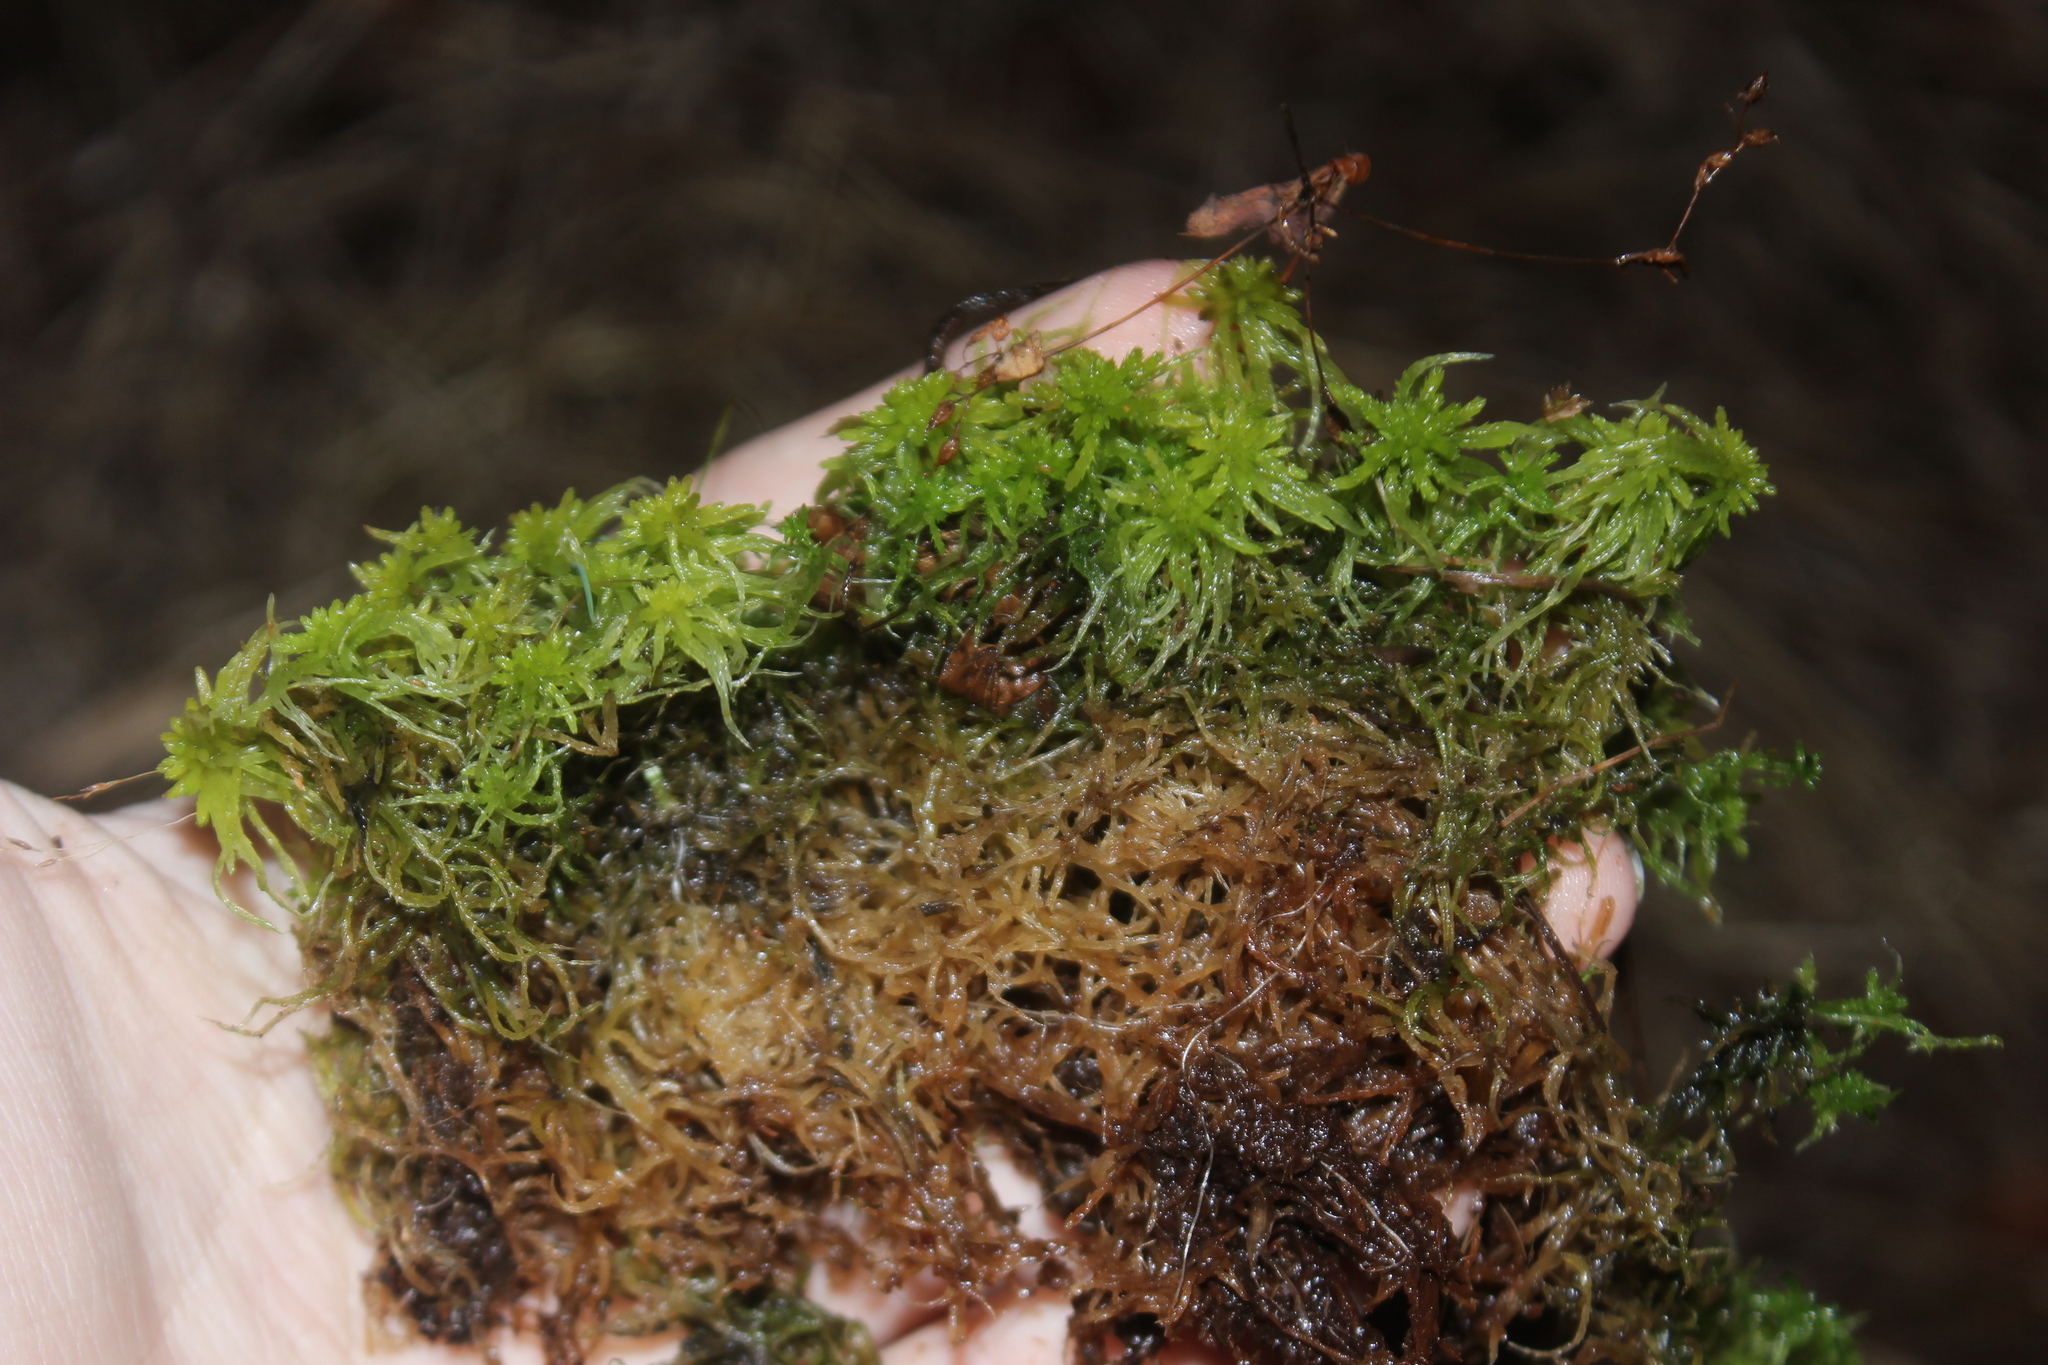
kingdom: Plantae
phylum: Bryophyta
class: Sphagnopsida
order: Sphagnales
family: Sphagnaceae
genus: Sphagnum
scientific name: Sphagnum girgensohnii
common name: Girgensohn's peat moss
